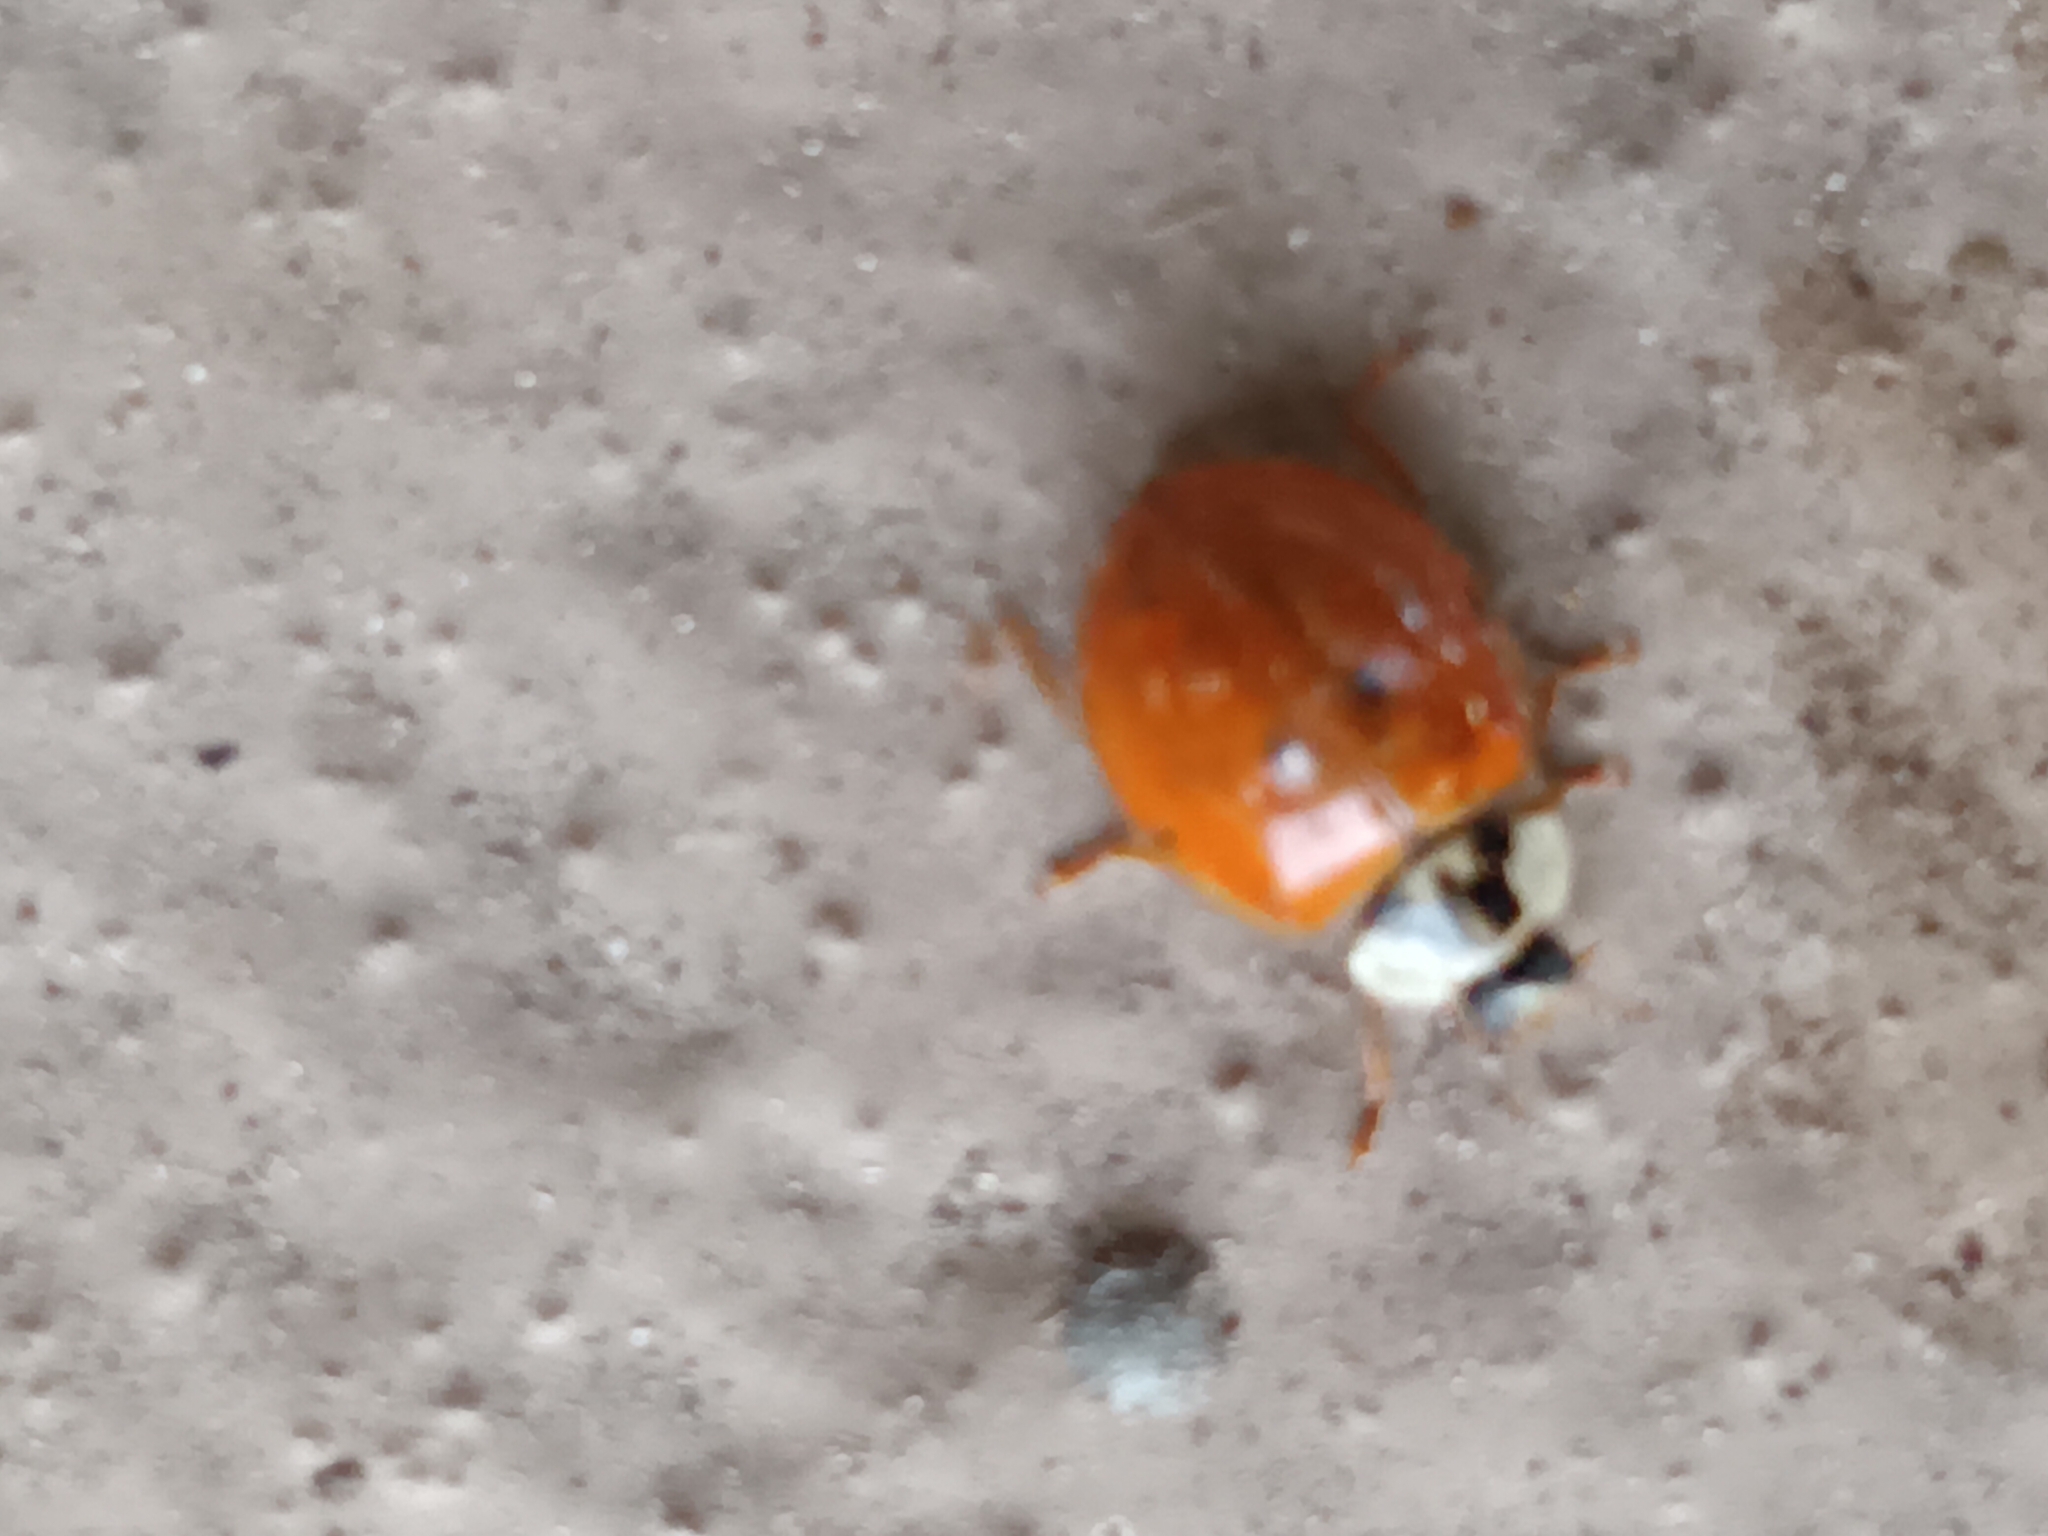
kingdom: Animalia
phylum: Arthropoda
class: Insecta
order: Coleoptera
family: Coccinellidae
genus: Harmonia
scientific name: Harmonia axyridis
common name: Harlequin ladybird
